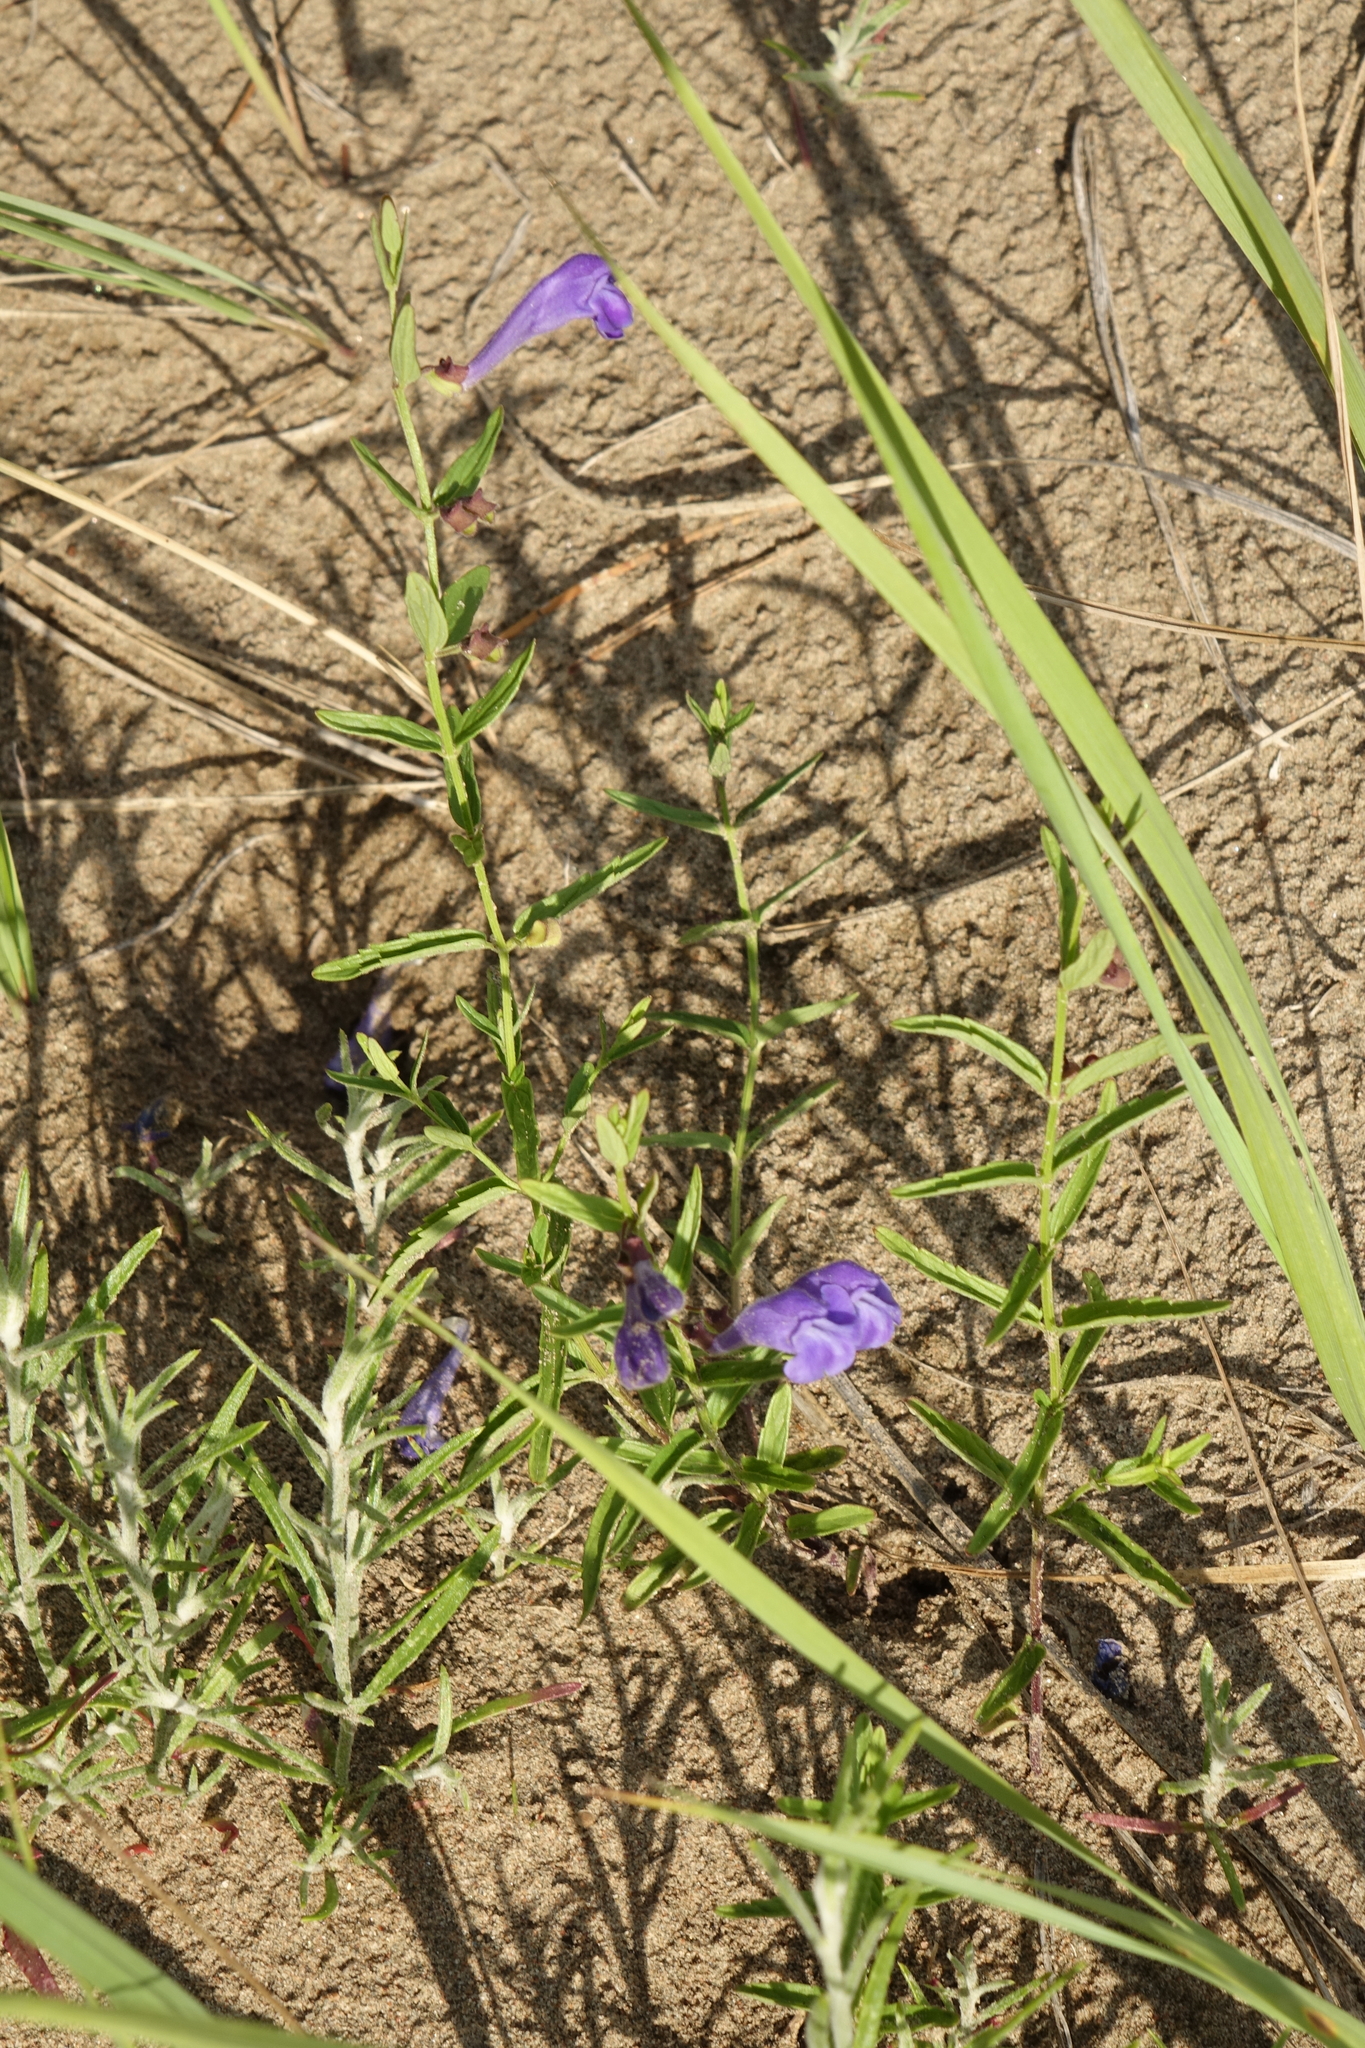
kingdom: Plantae
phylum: Tracheophyta
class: Magnoliopsida
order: Lamiales
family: Lamiaceae
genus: Scutellaria
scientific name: Scutellaria scordiifolia
